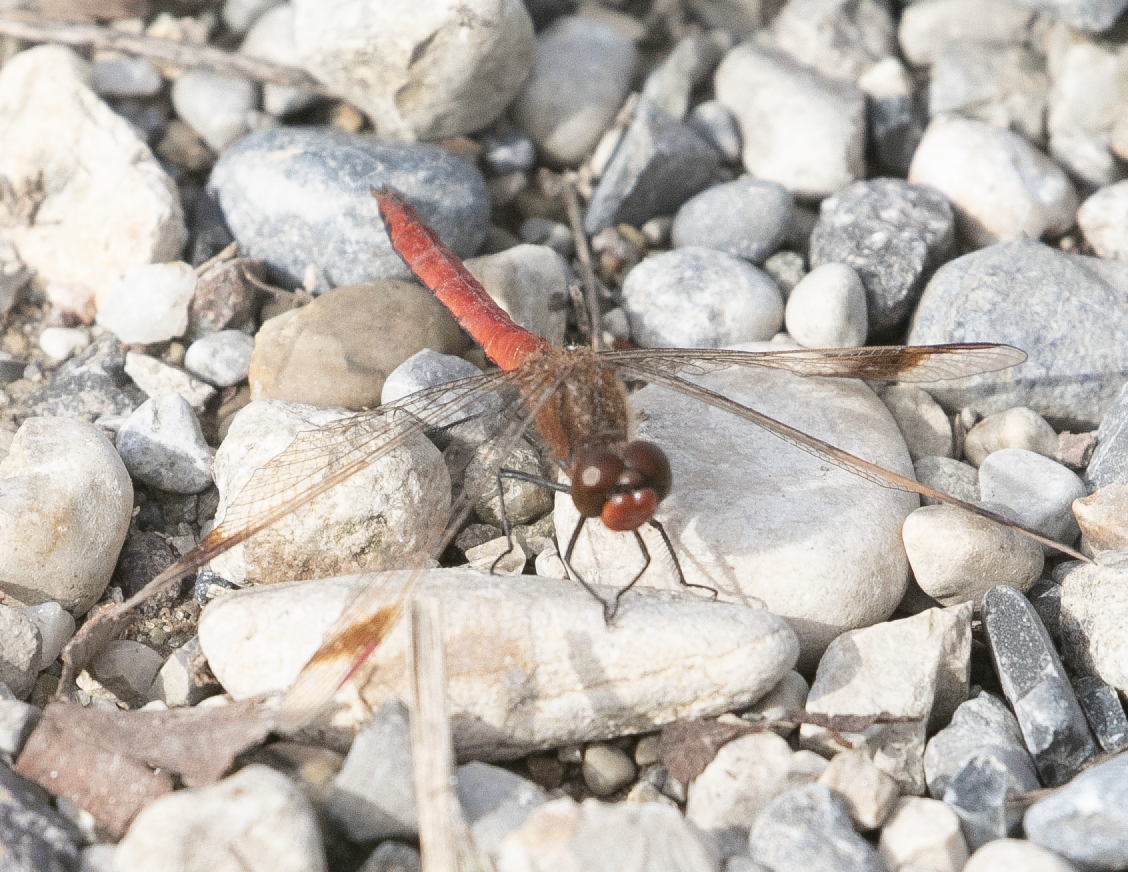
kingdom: Animalia
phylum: Arthropoda
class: Insecta
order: Odonata
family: Libellulidae
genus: Sympetrum
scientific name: Sympetrum pedemontanum
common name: Banded darter
